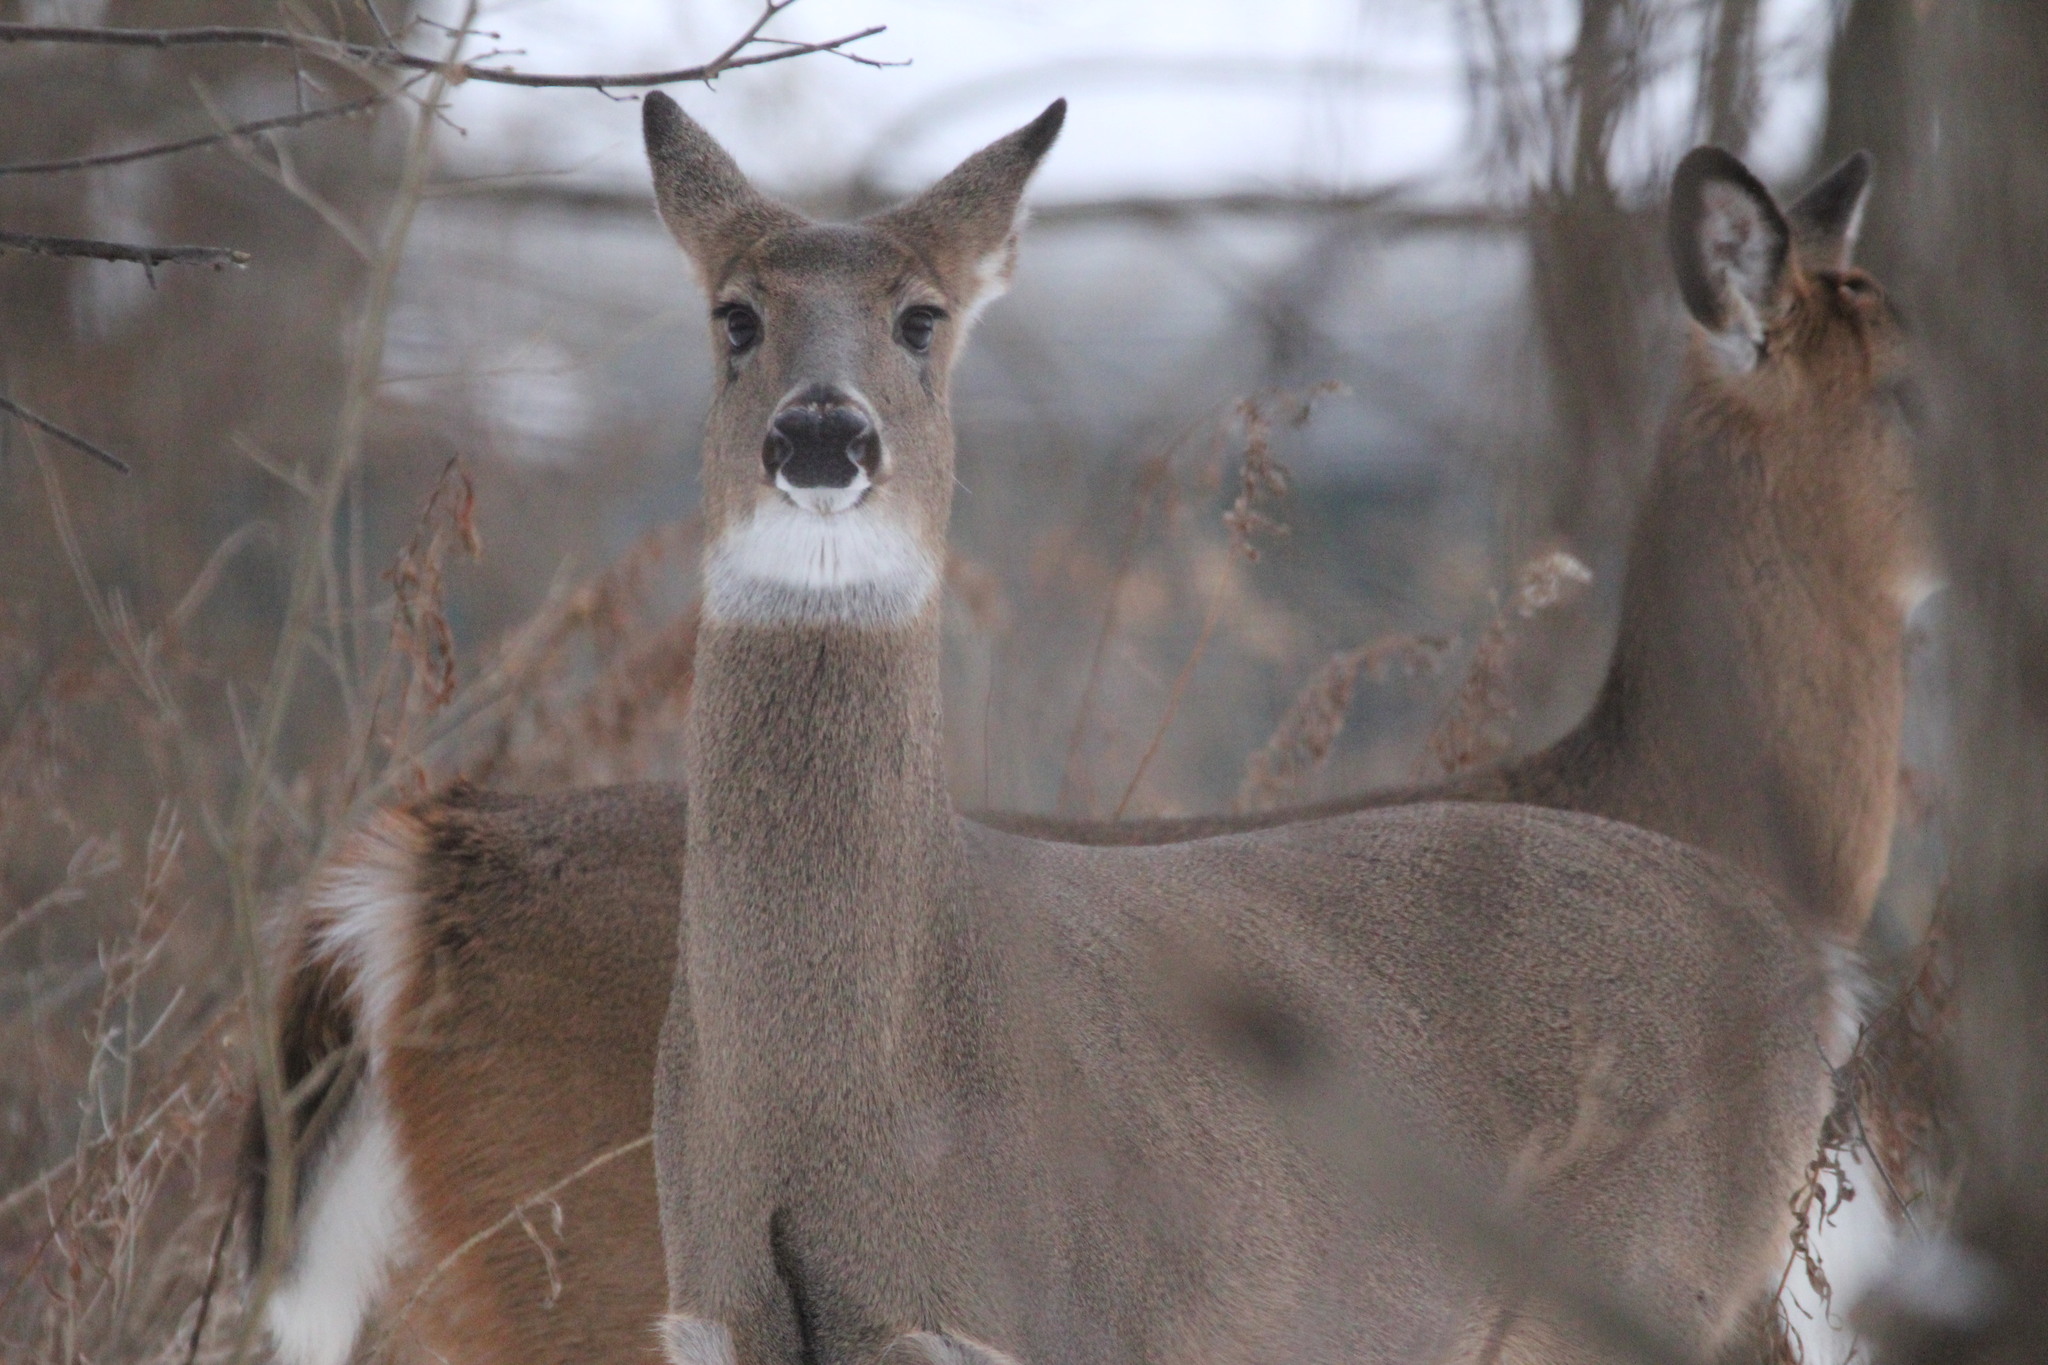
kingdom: Animalia
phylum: Chordata
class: Mammalia
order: Artiodactyla
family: Cervidae
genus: Odocoileus
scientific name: Odocoileus virginianus
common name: White-tailed deer
